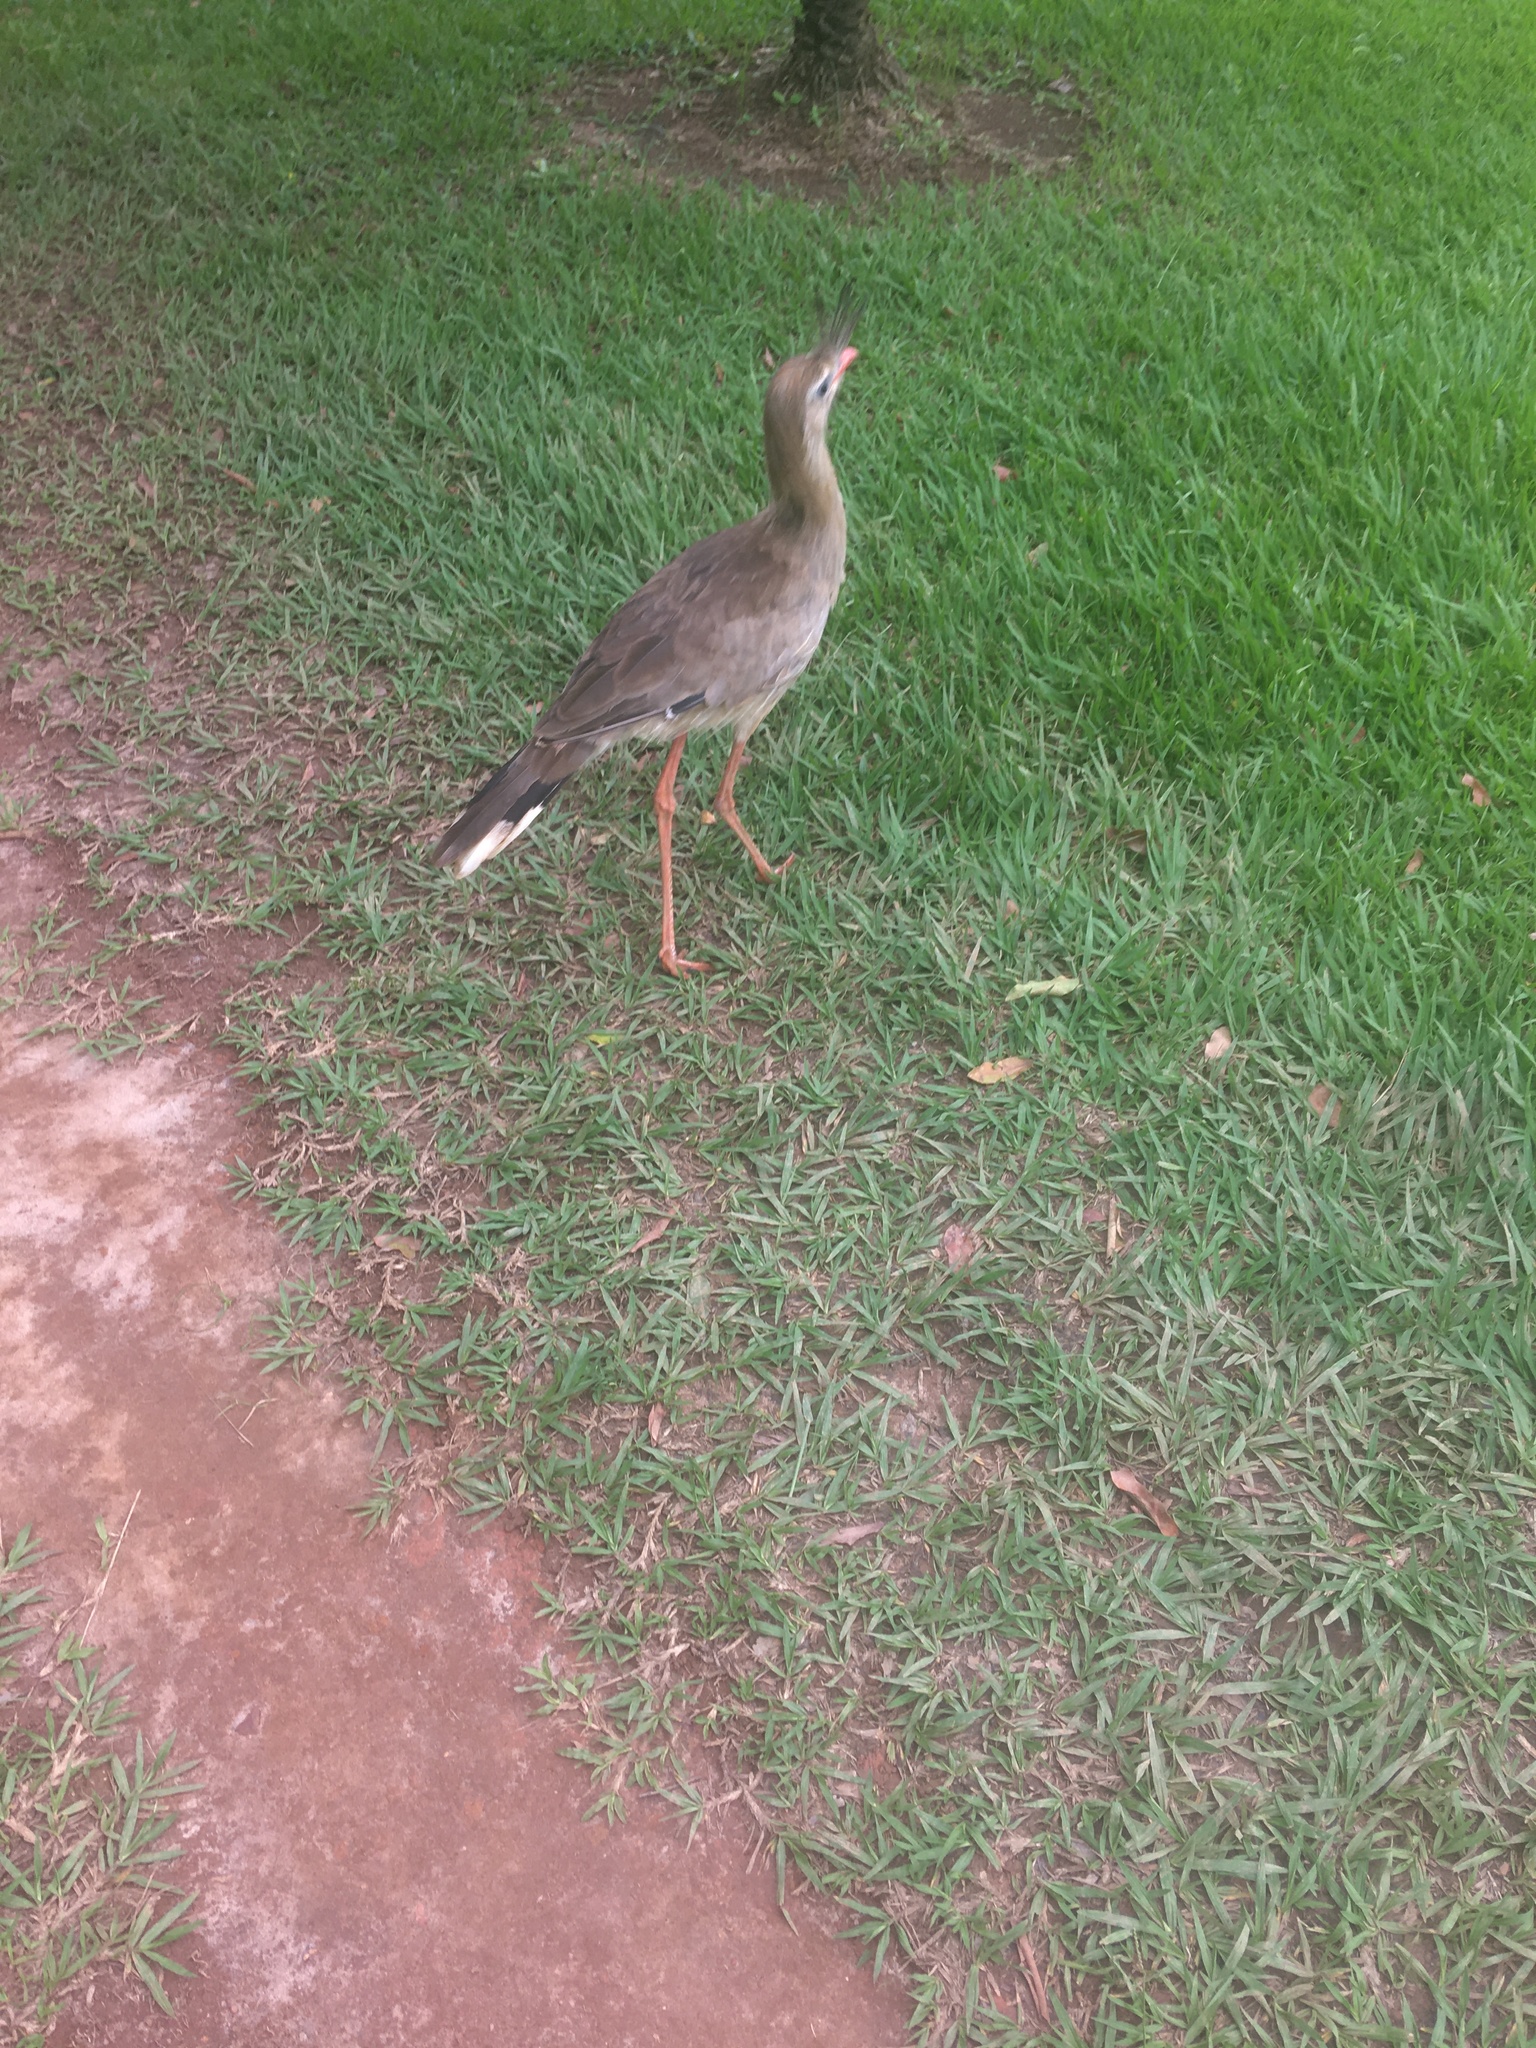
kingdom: Animalia
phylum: Chordata
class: Aves
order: Cariamiformes
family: Cariamidae
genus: Cariama
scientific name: Cariama cristata
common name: Red-legged seriema
